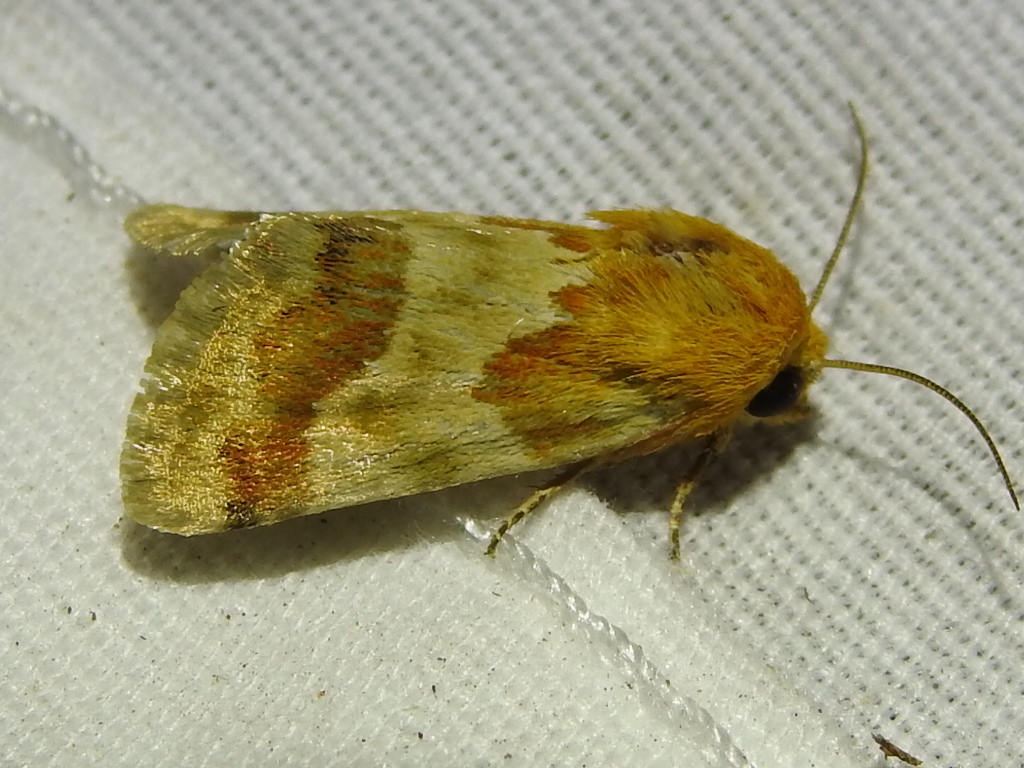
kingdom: Animalia
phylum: Arthropoda
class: Insecta
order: Lepidoptera
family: Noctuidae
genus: Schinia
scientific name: Schinia siren
